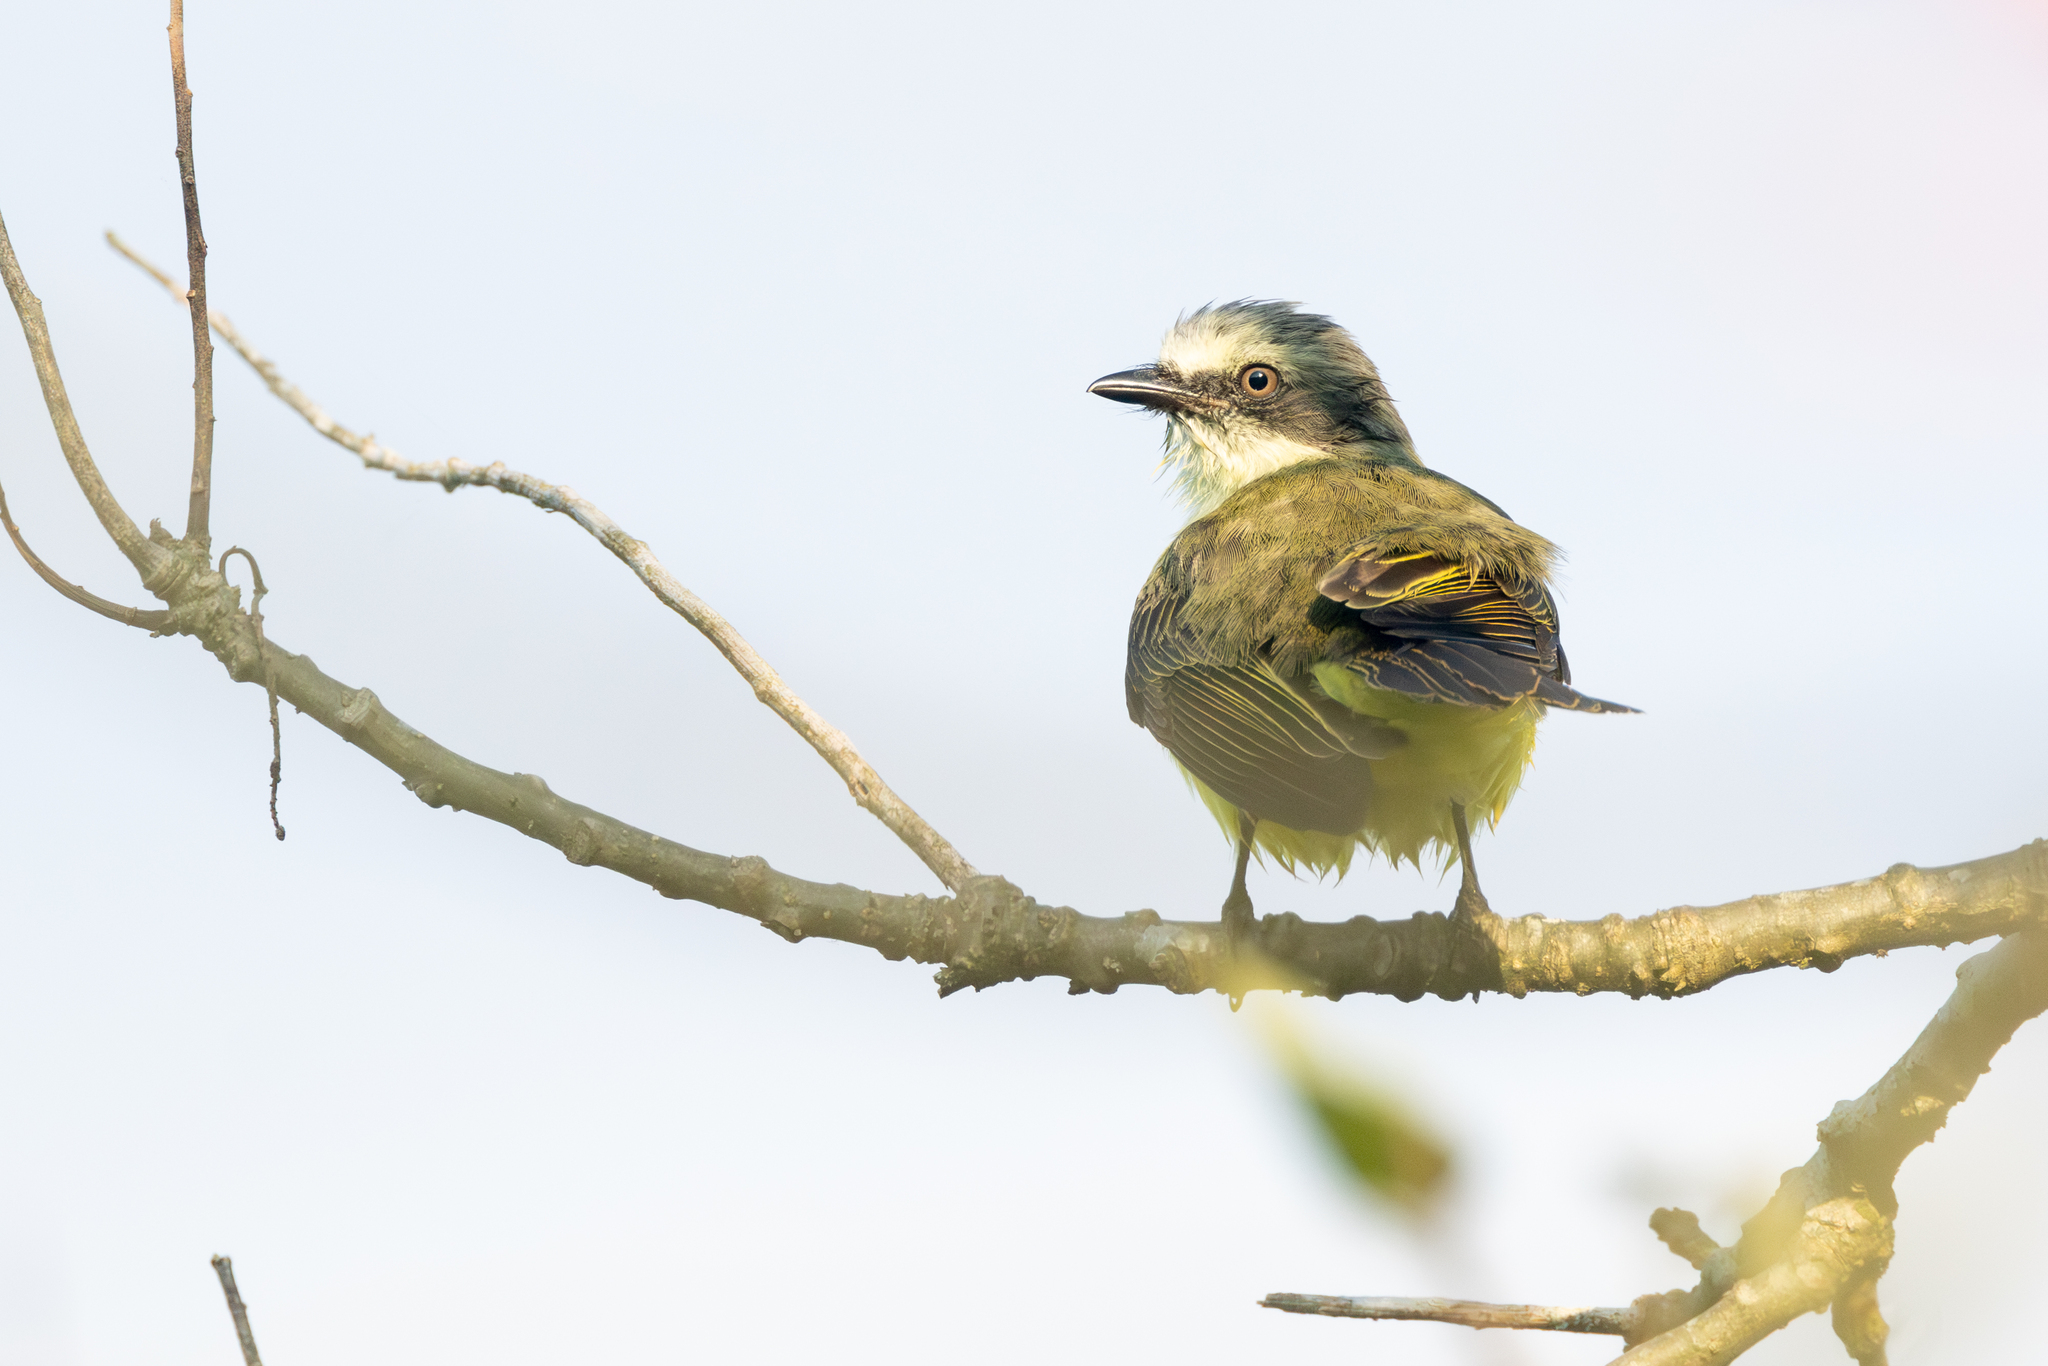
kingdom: Animalia
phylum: Chordata
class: Aves
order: Passeriformes
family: Tyrannidae
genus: Myiozetetes
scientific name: Myiozetetes granadensis
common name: Gray-capped flycatcher
